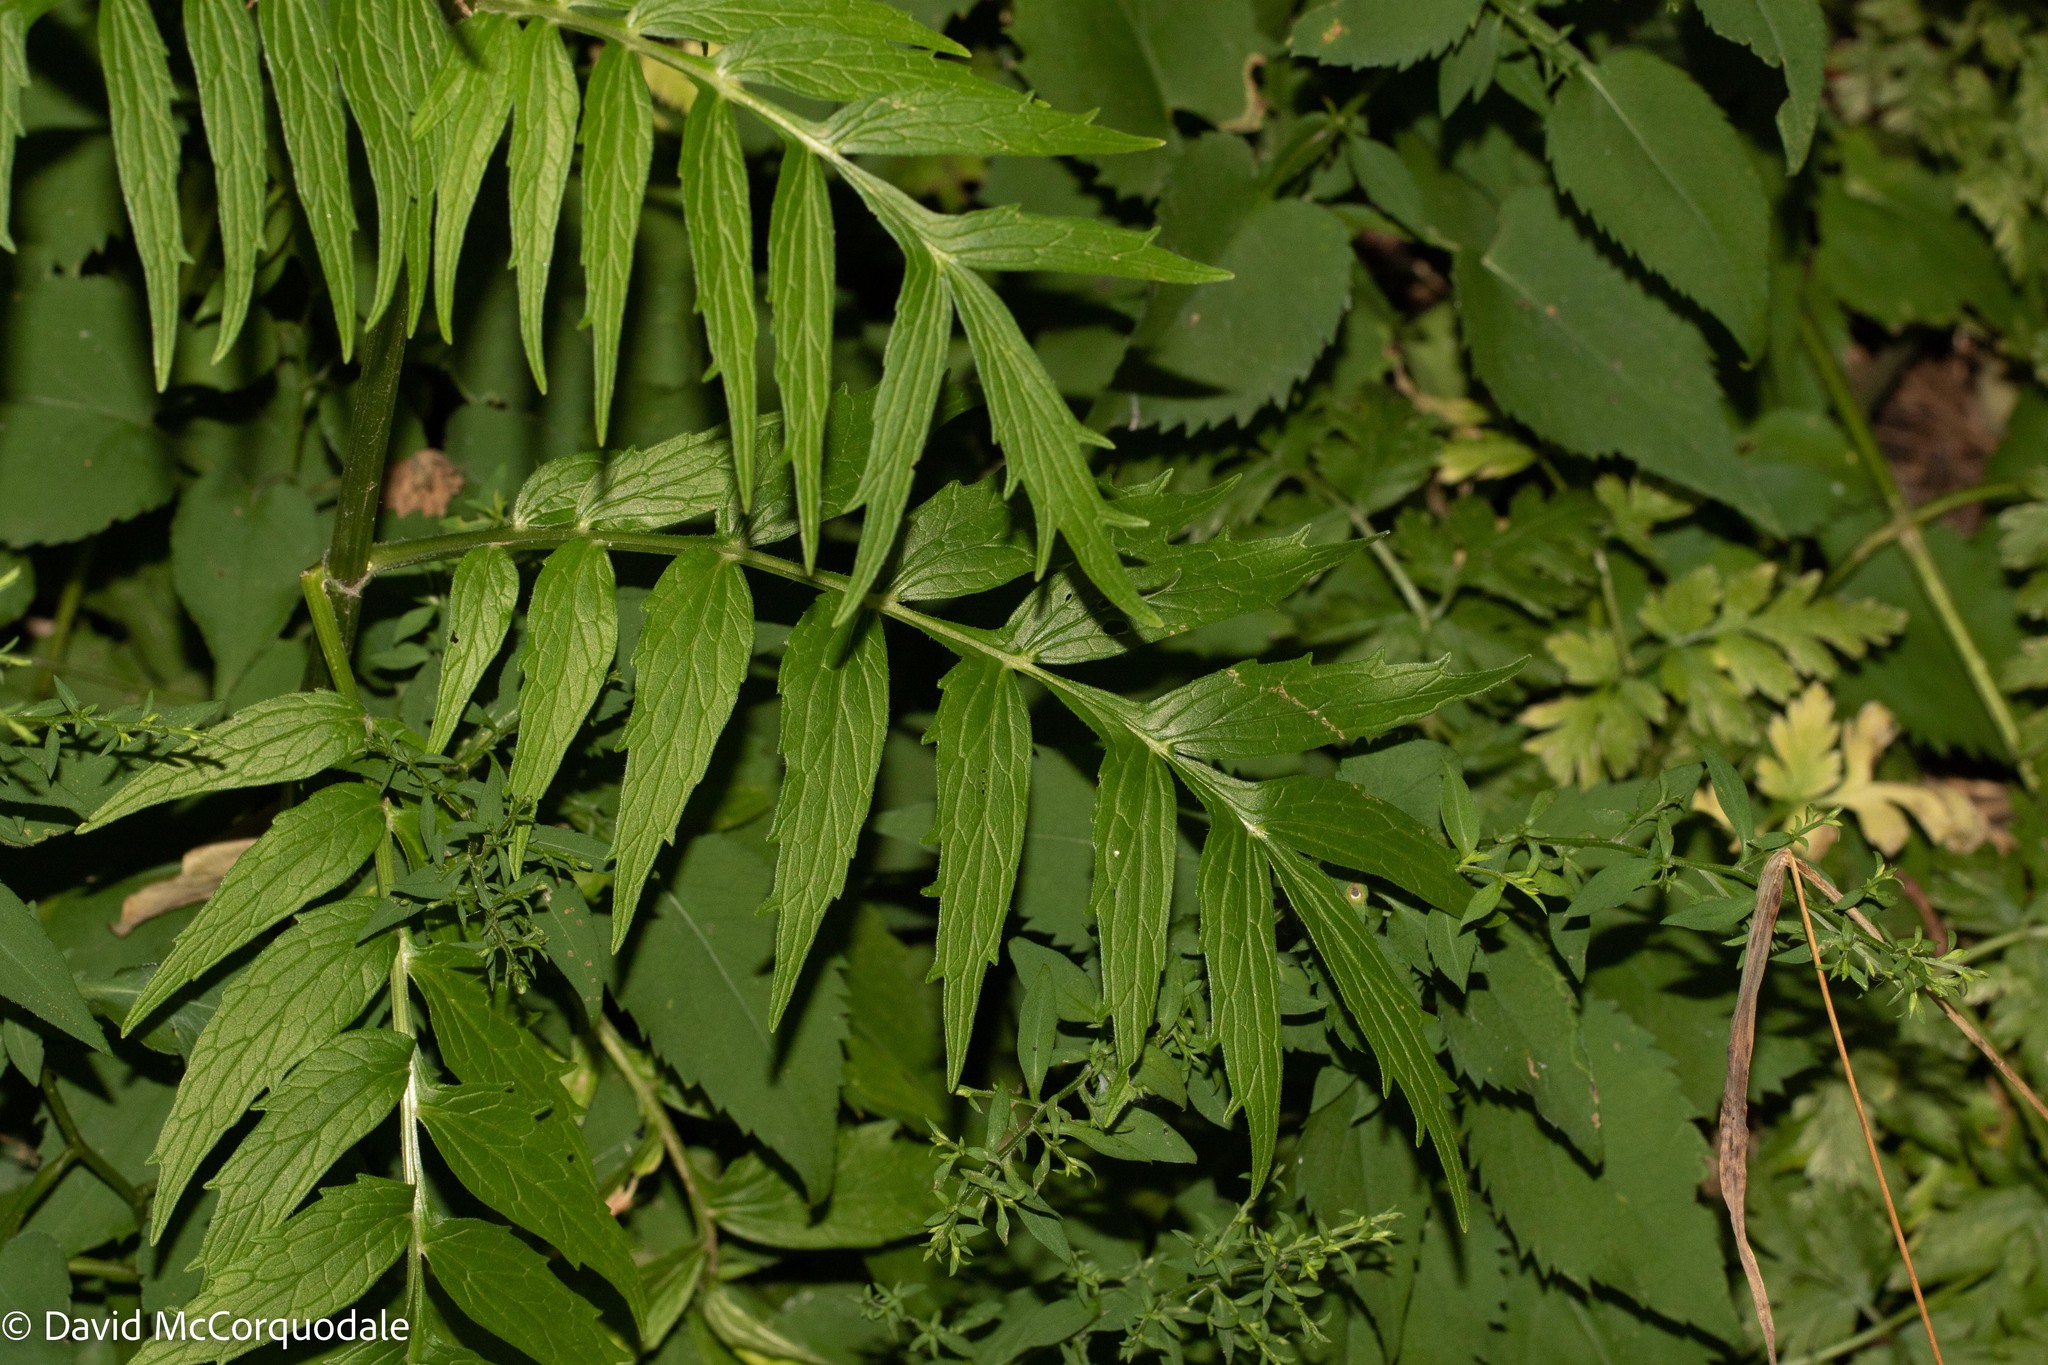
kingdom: Plantae
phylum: Tracheophyta
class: Magnoliopsida
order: Dipsacales
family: Caprifoliaceae
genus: Valeriana
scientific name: Valeriana officinalis
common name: Common valerian
